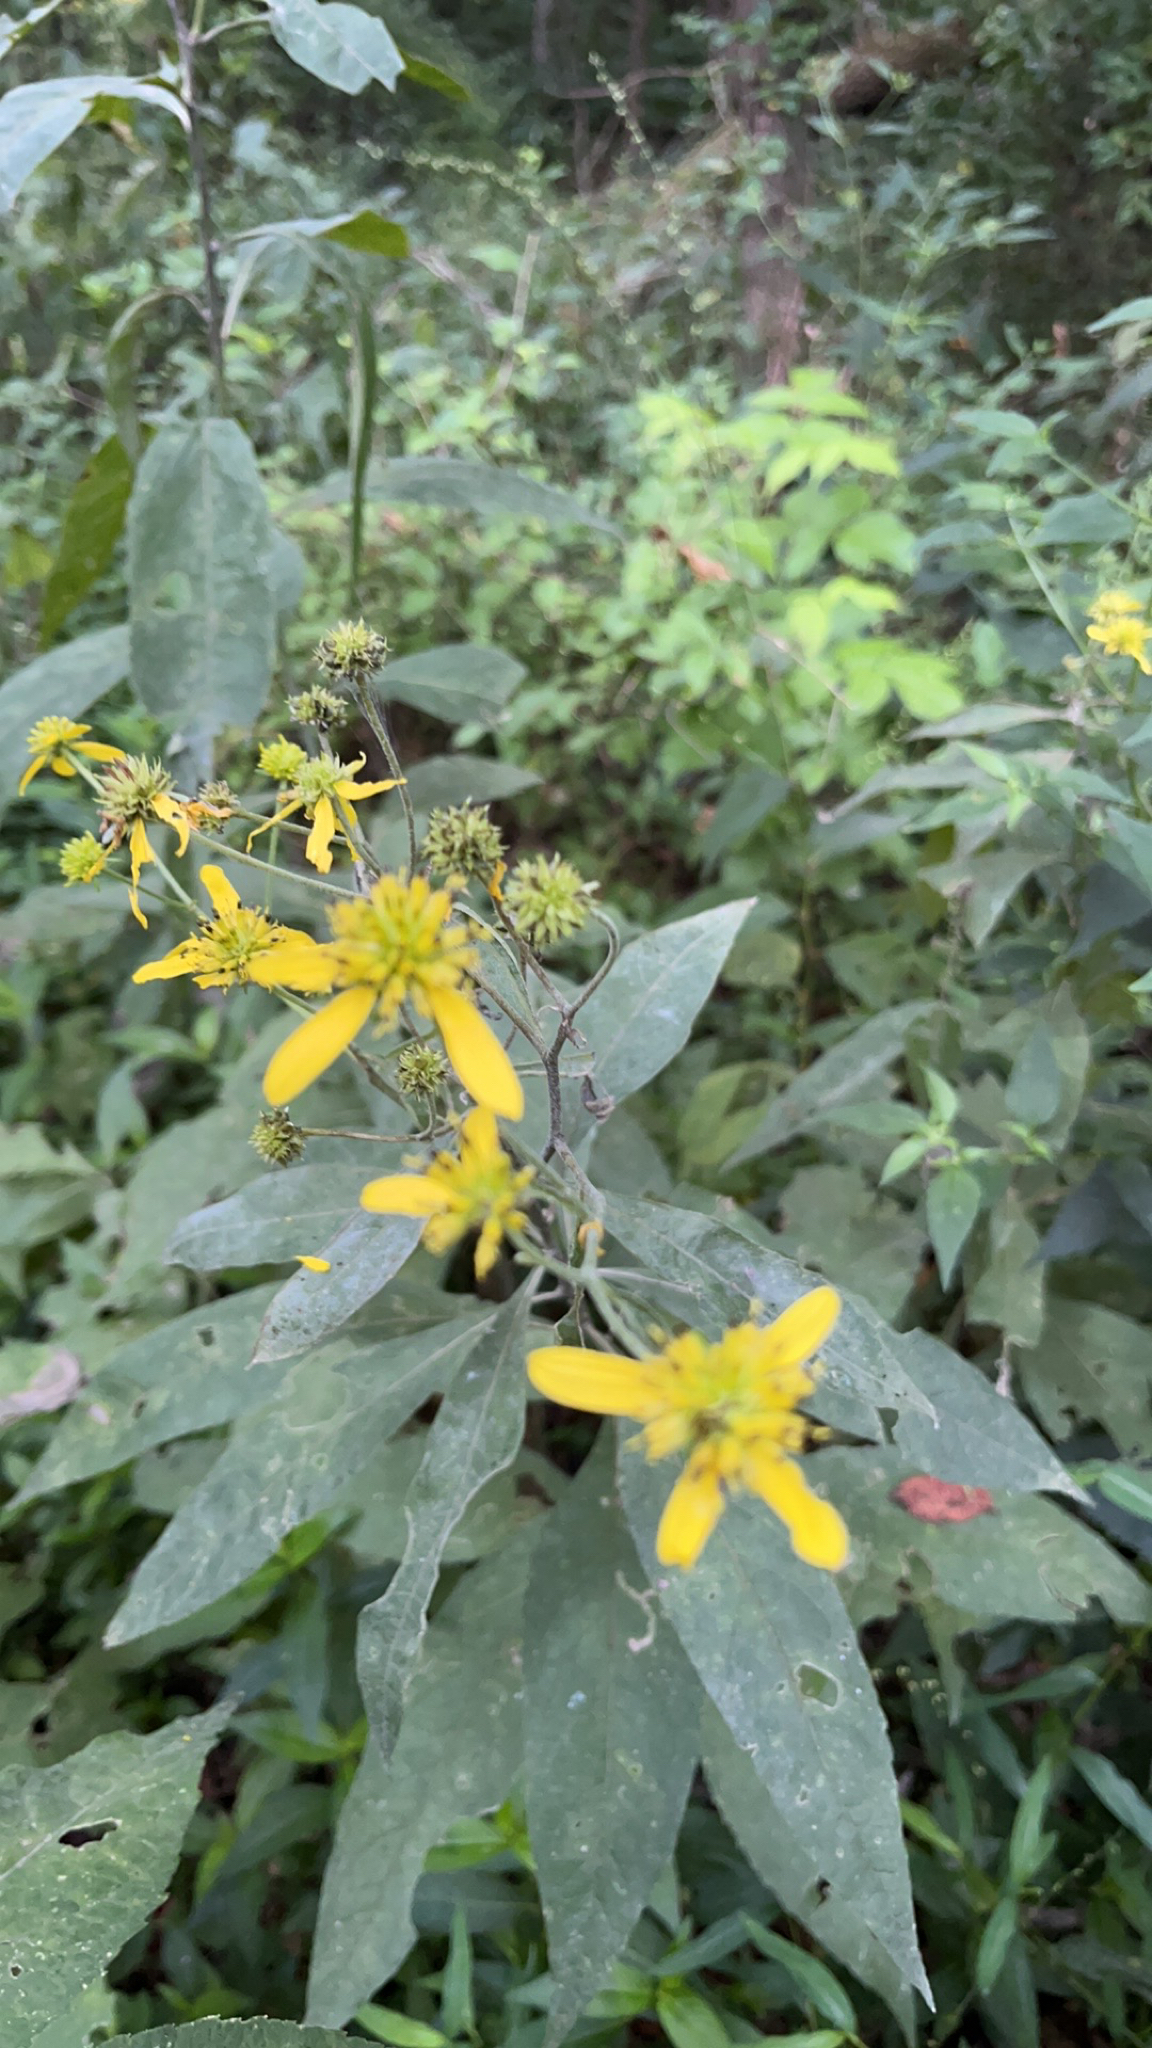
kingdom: Plantae
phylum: Tracheophyta
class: Magnoliopsida
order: Asterales
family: Asteraceae
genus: Verbesina
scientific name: Verbesina alternifolia
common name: Wingstem
